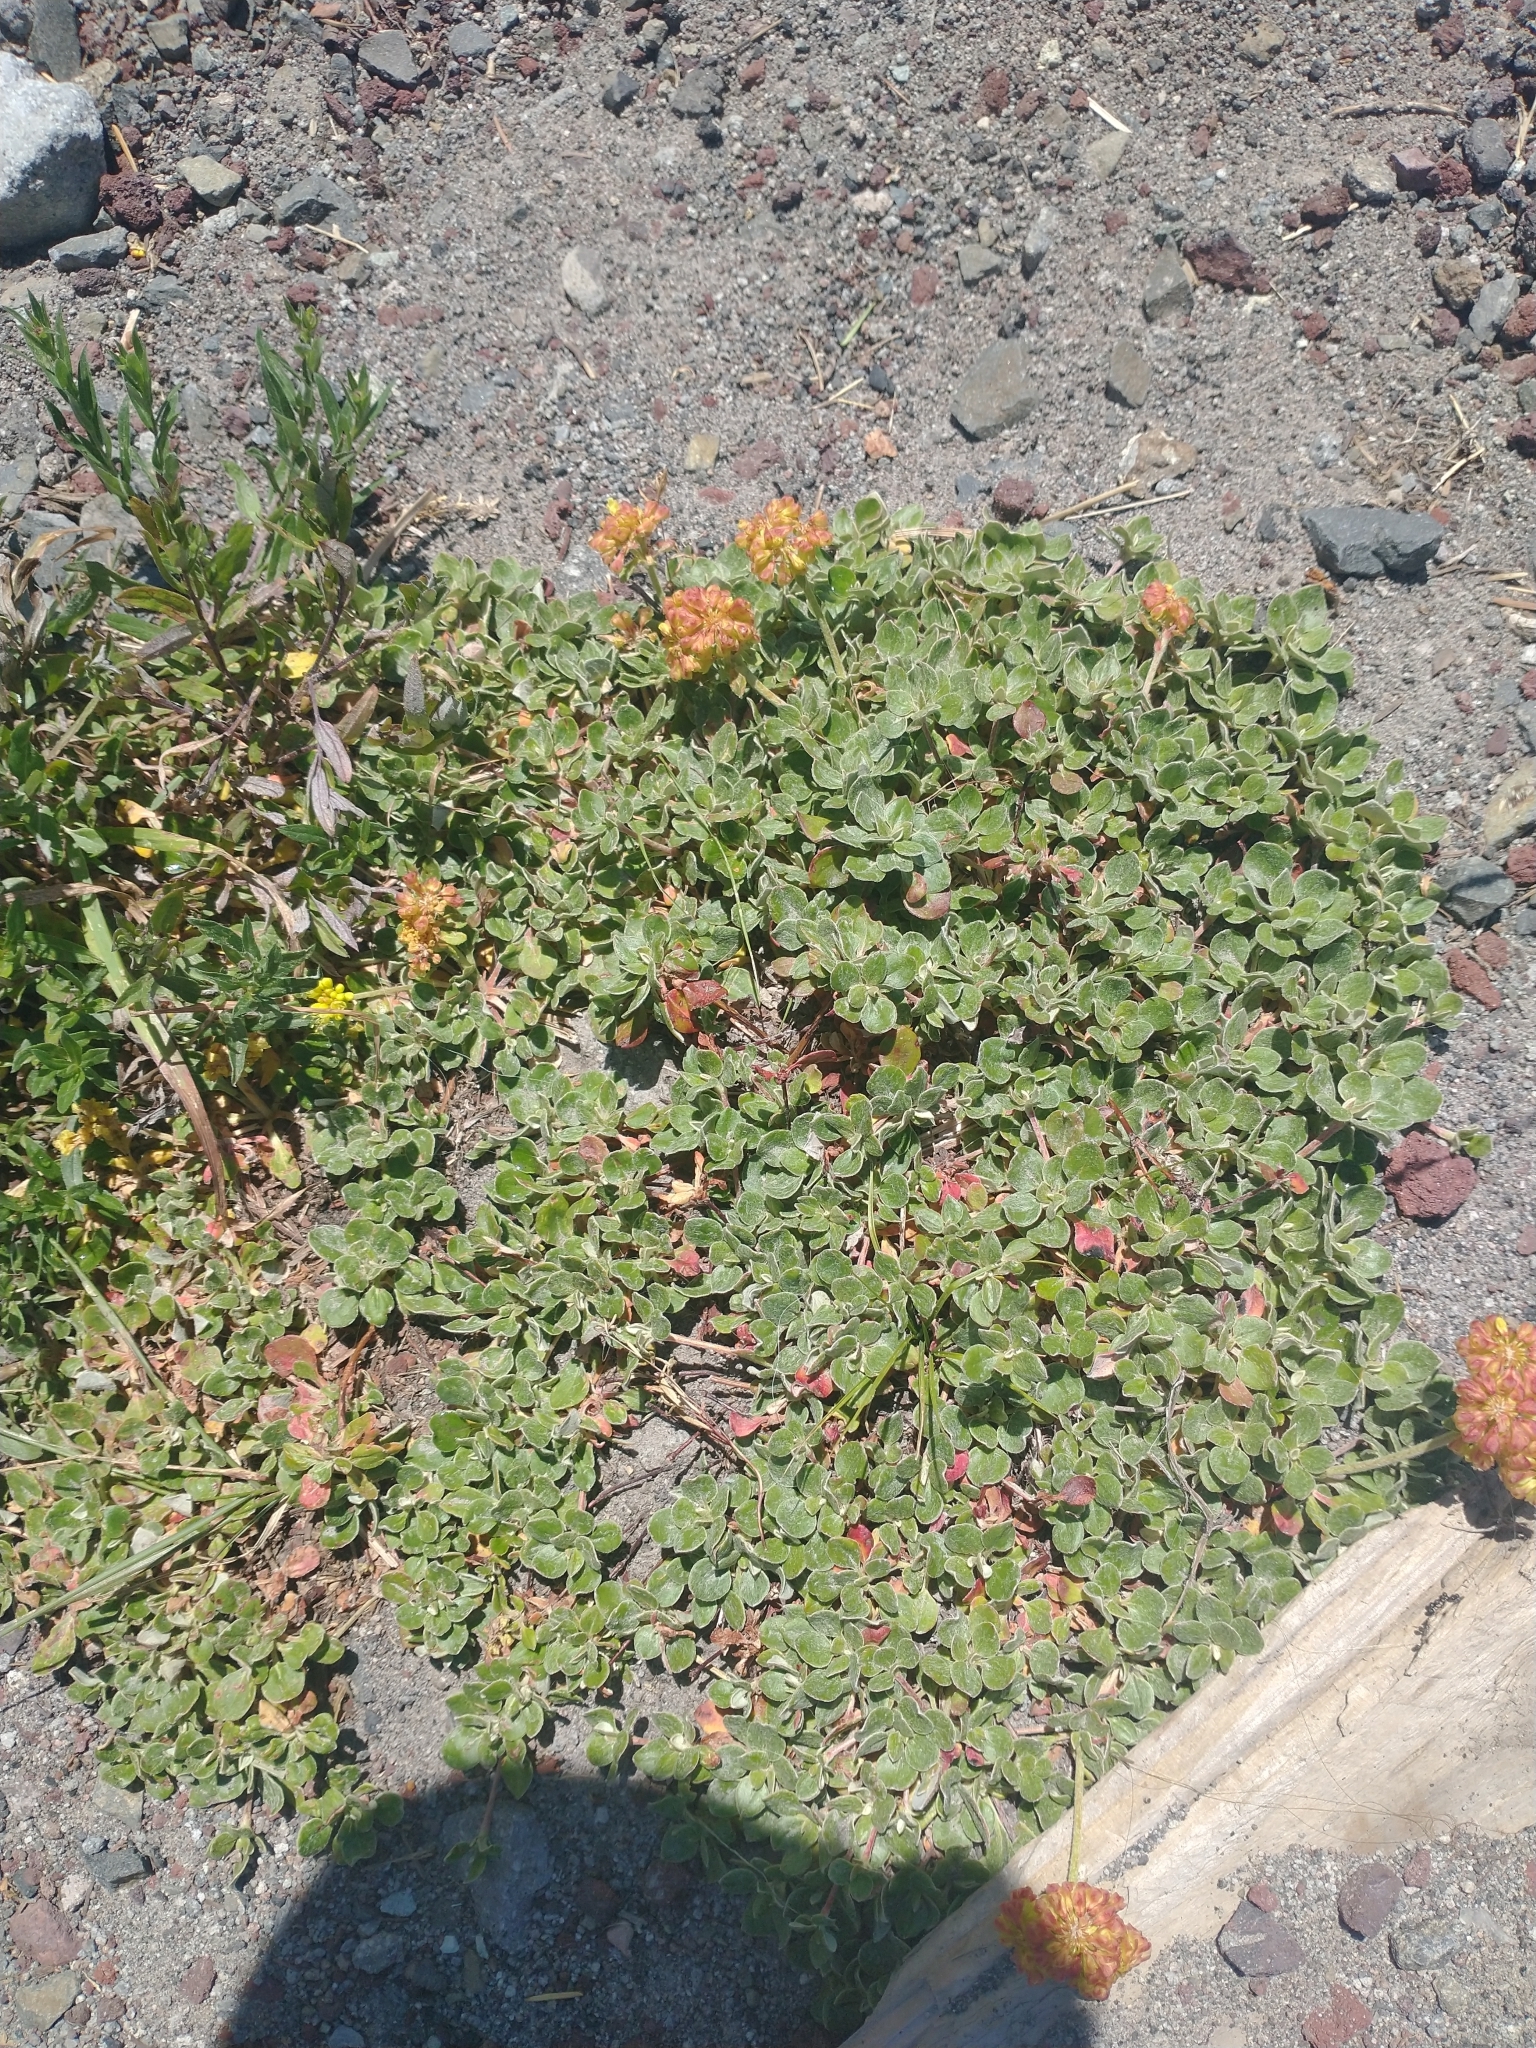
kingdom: Plantae
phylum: Tracheophyta
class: Magnoliopsida
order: Caryophyllales
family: Polygonaceae
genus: Eriogonum
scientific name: Eriogonum umbellatum
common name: Sulfur-buckwheat
